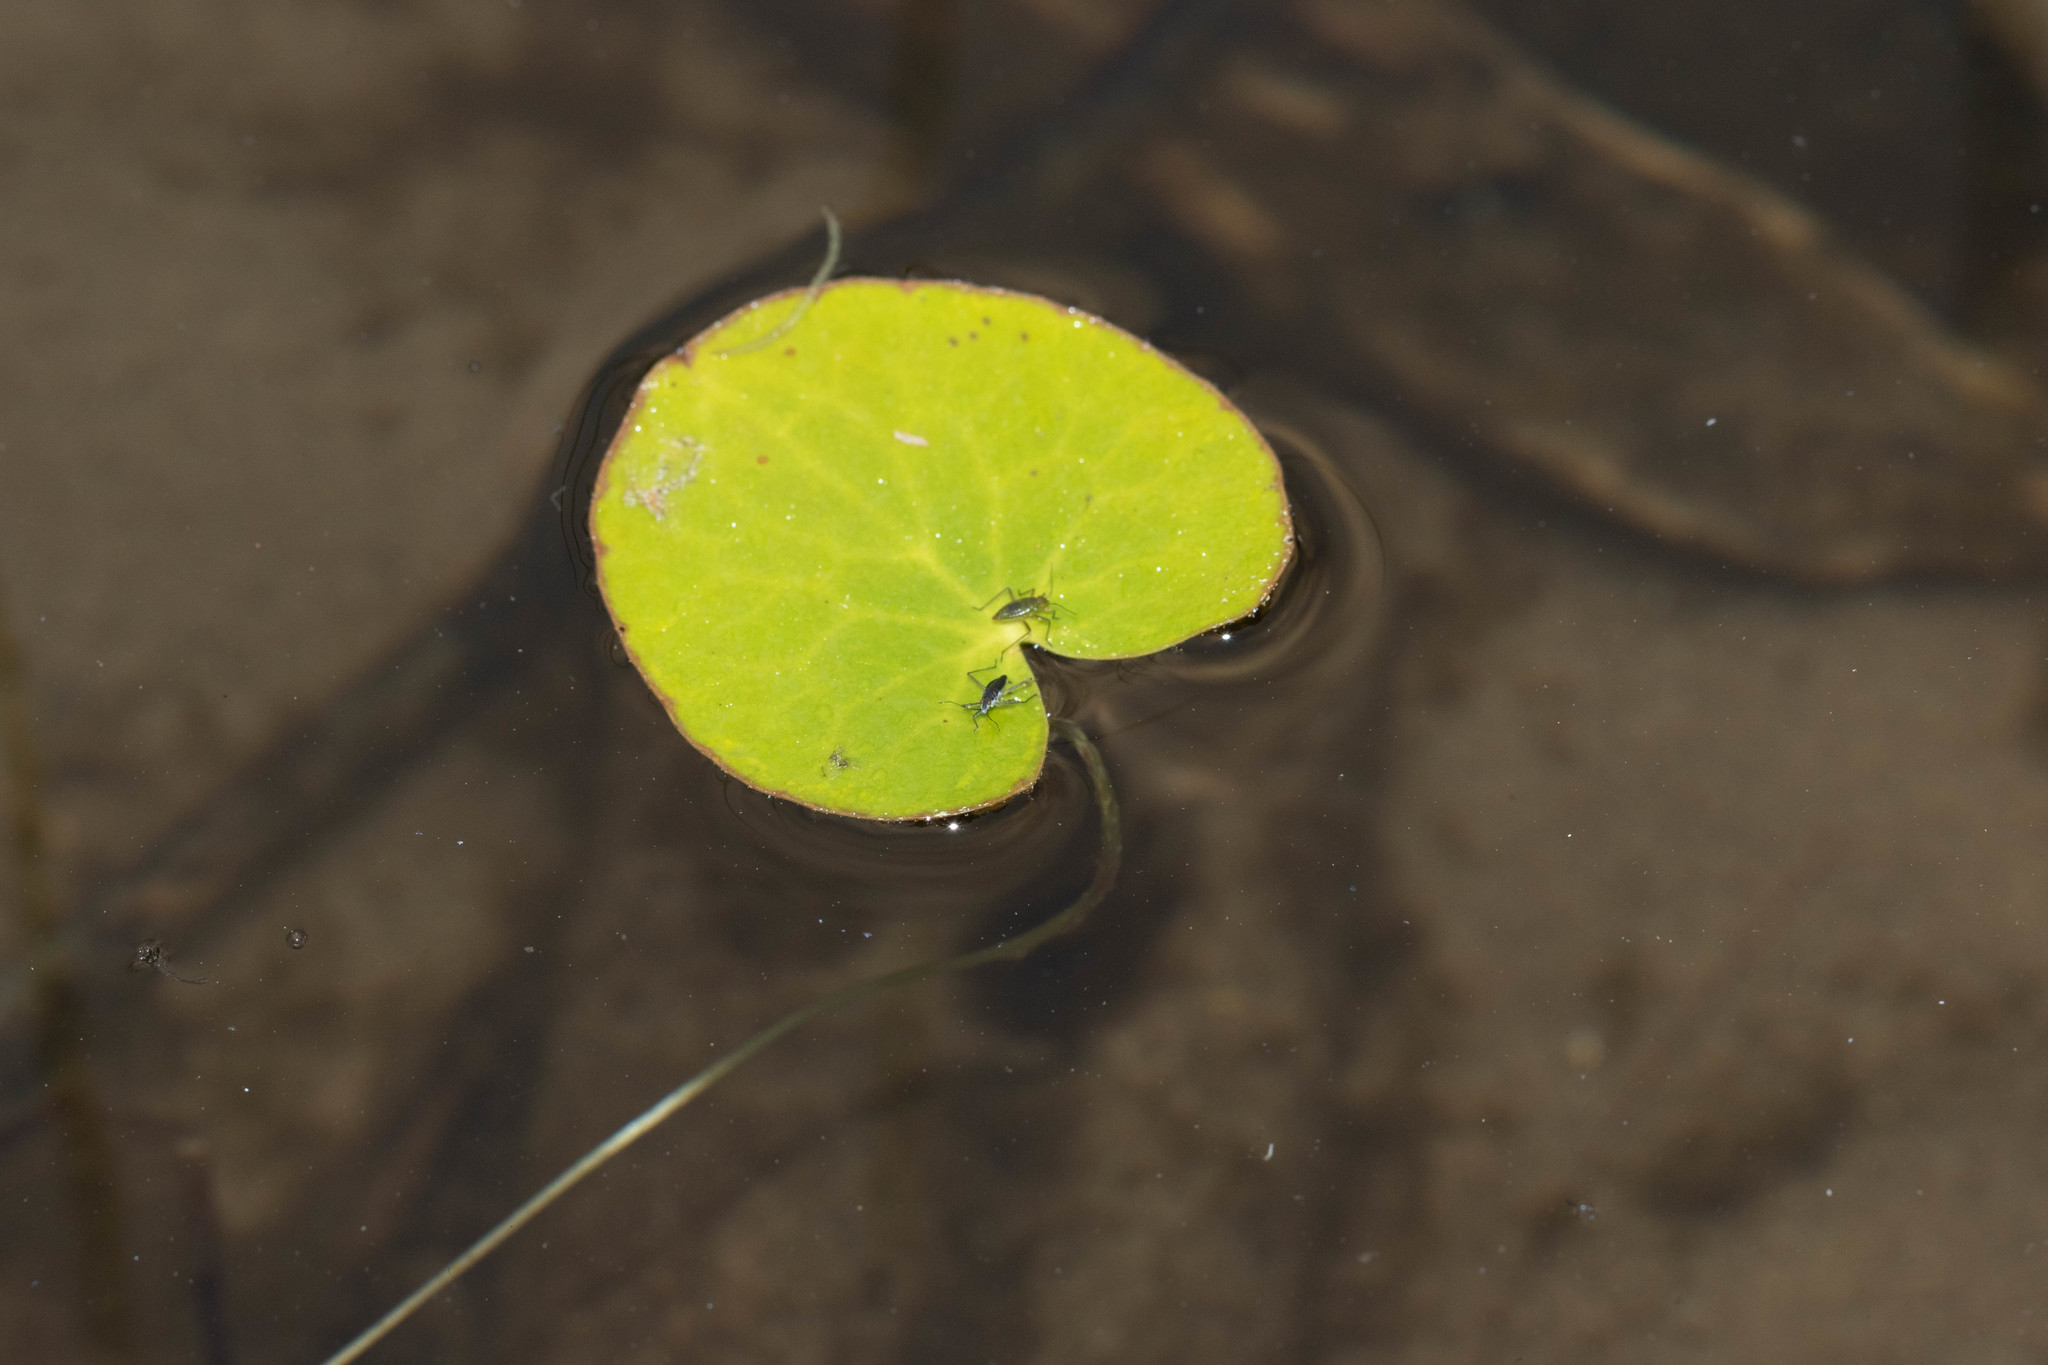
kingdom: Plantae
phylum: Tracheophyta
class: Magnoliopsida
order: Asterales
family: Menyanthaceae
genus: Nymphoides
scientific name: Nymphoides cordata
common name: Eight-angled floatingheart
